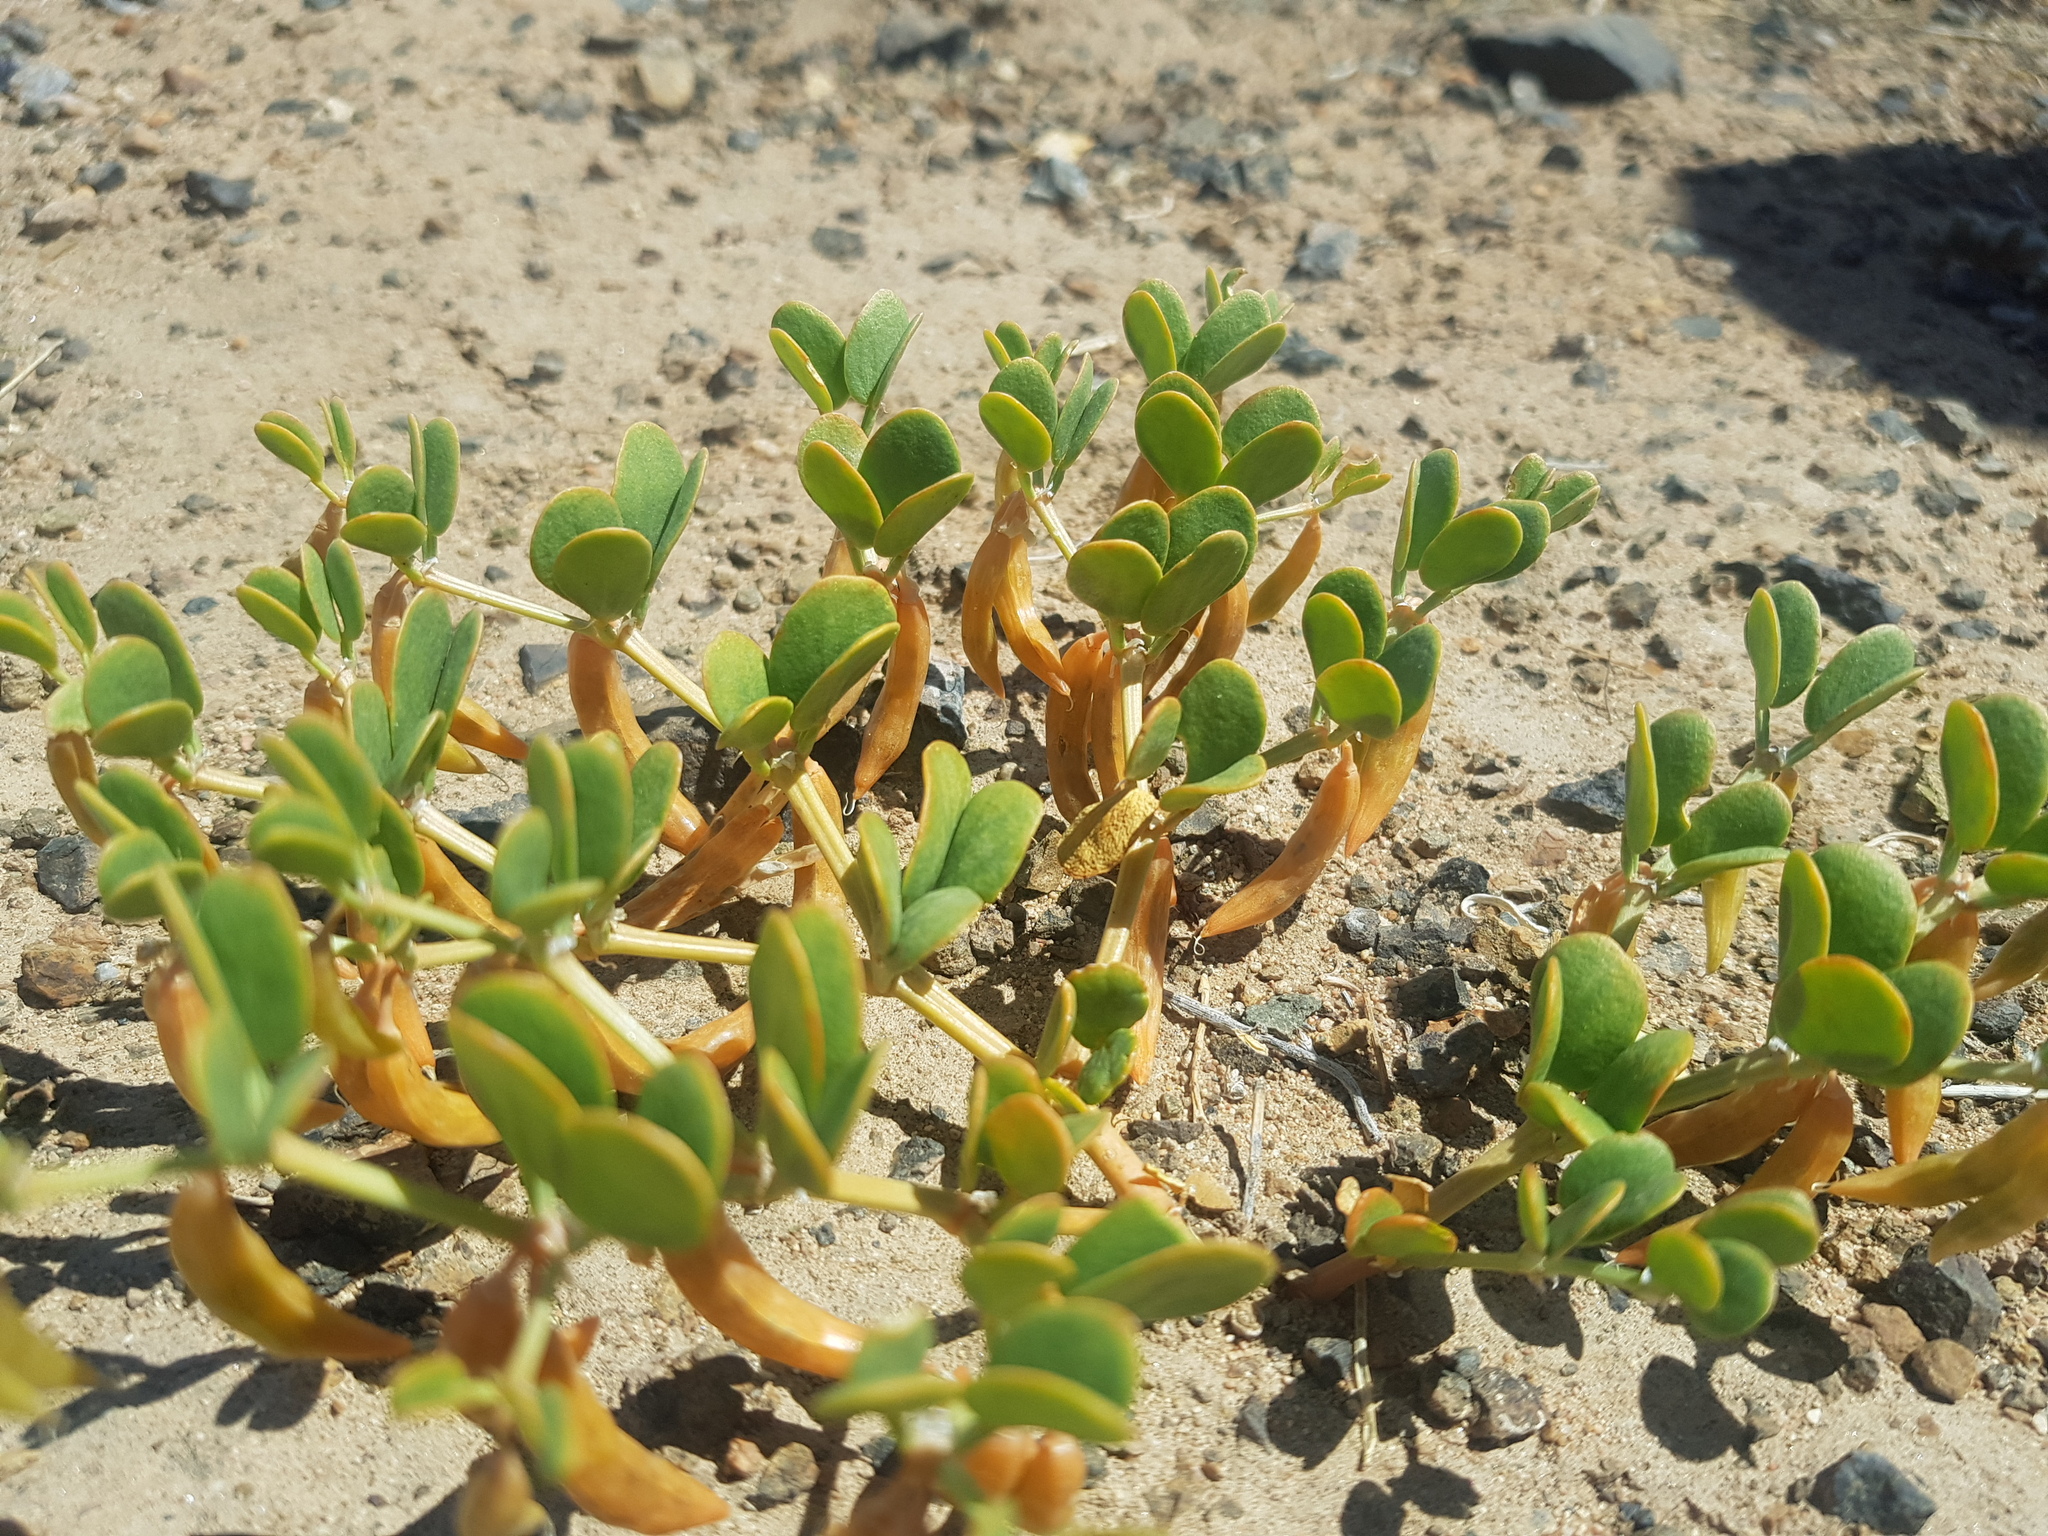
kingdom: Plantae
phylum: Tracheophyta
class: Magnoliopsida
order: Zygophyllales
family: Zygophyllaceae
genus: Zygophyllum
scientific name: Zygophyllum rosowii
